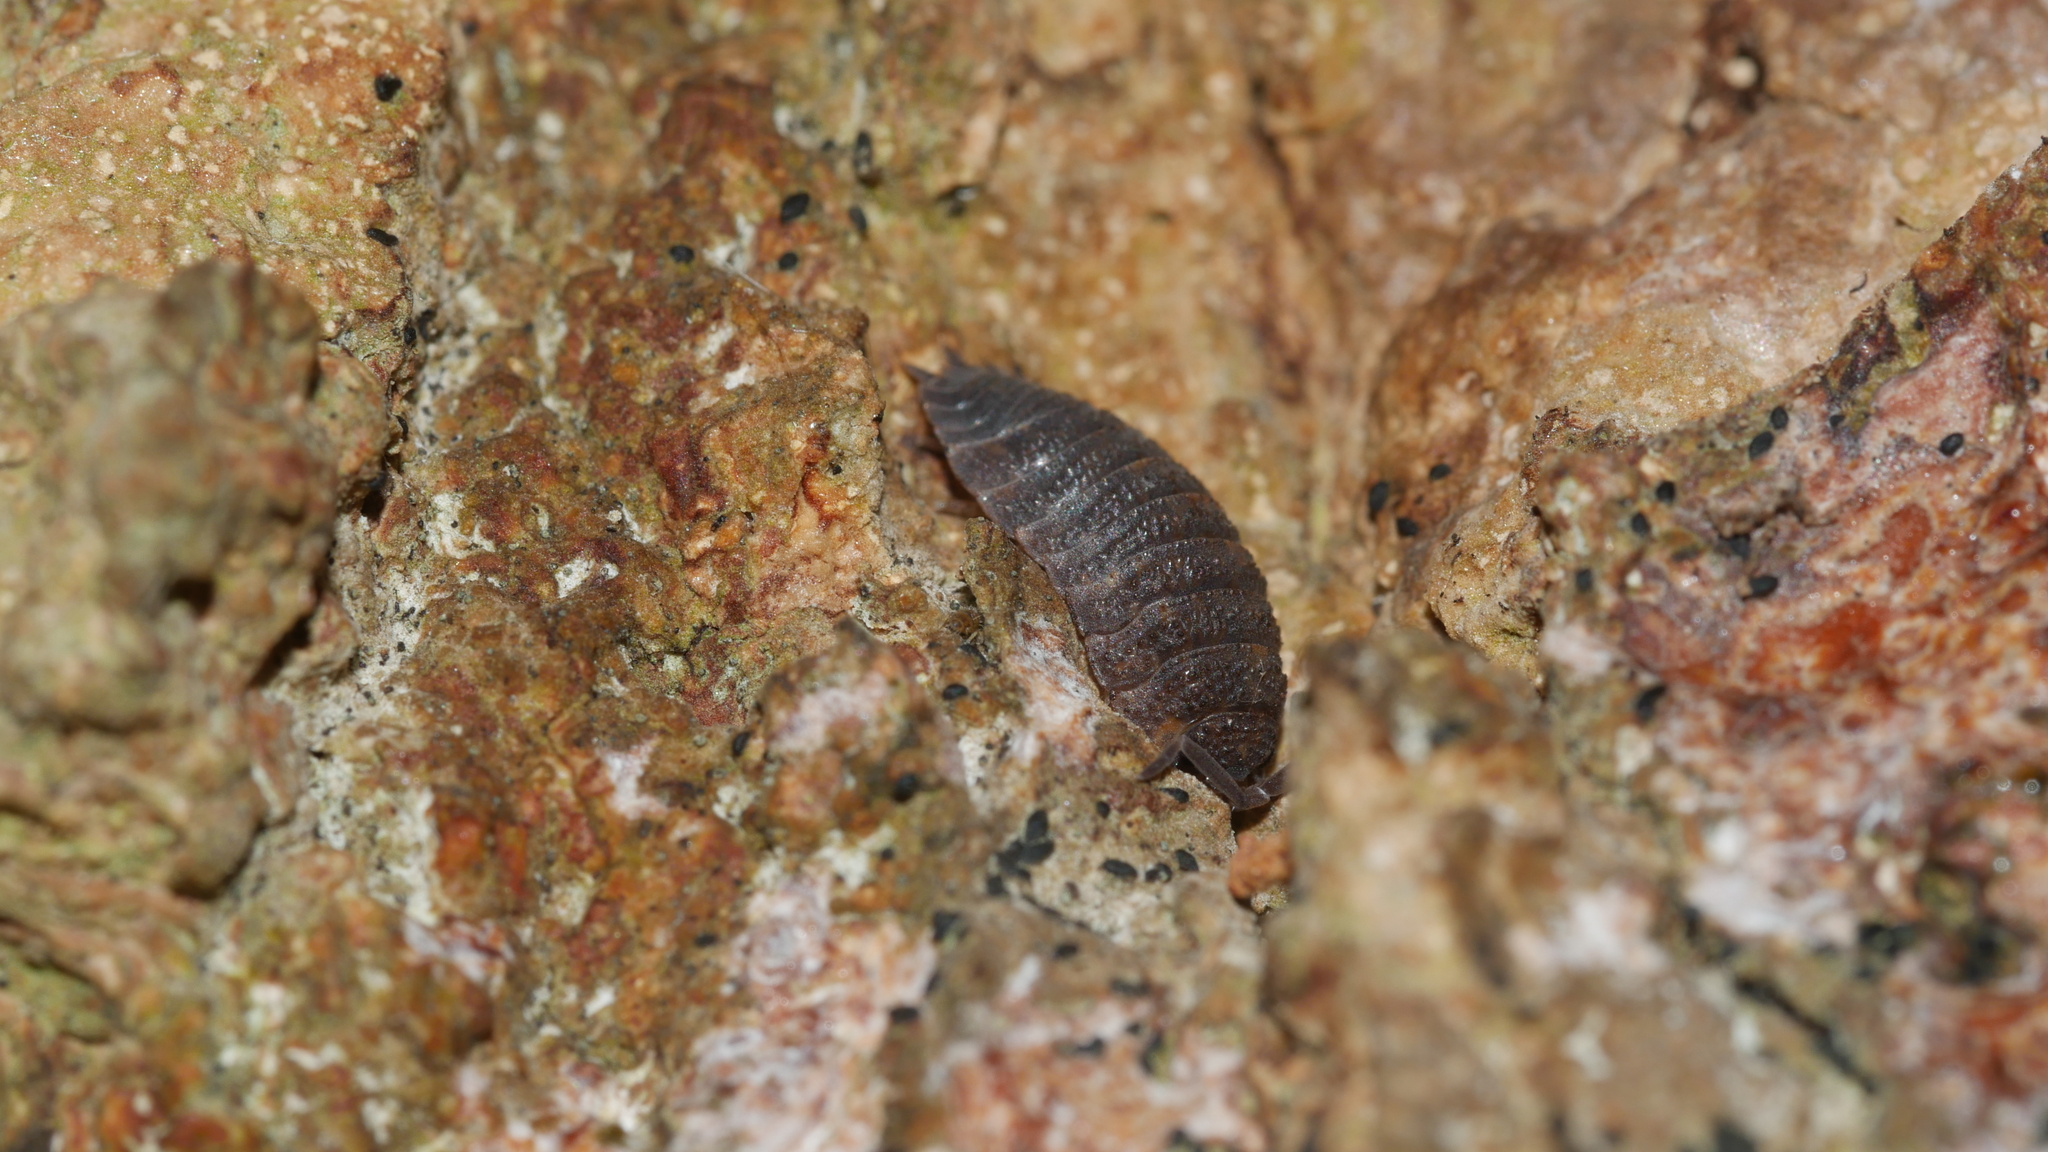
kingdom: Animalia
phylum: Arthropoda
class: Malacostraca
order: Isopoda
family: Porcellionidae
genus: Porcellio
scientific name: Porcellio scaber
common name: Common rough woodlouse
